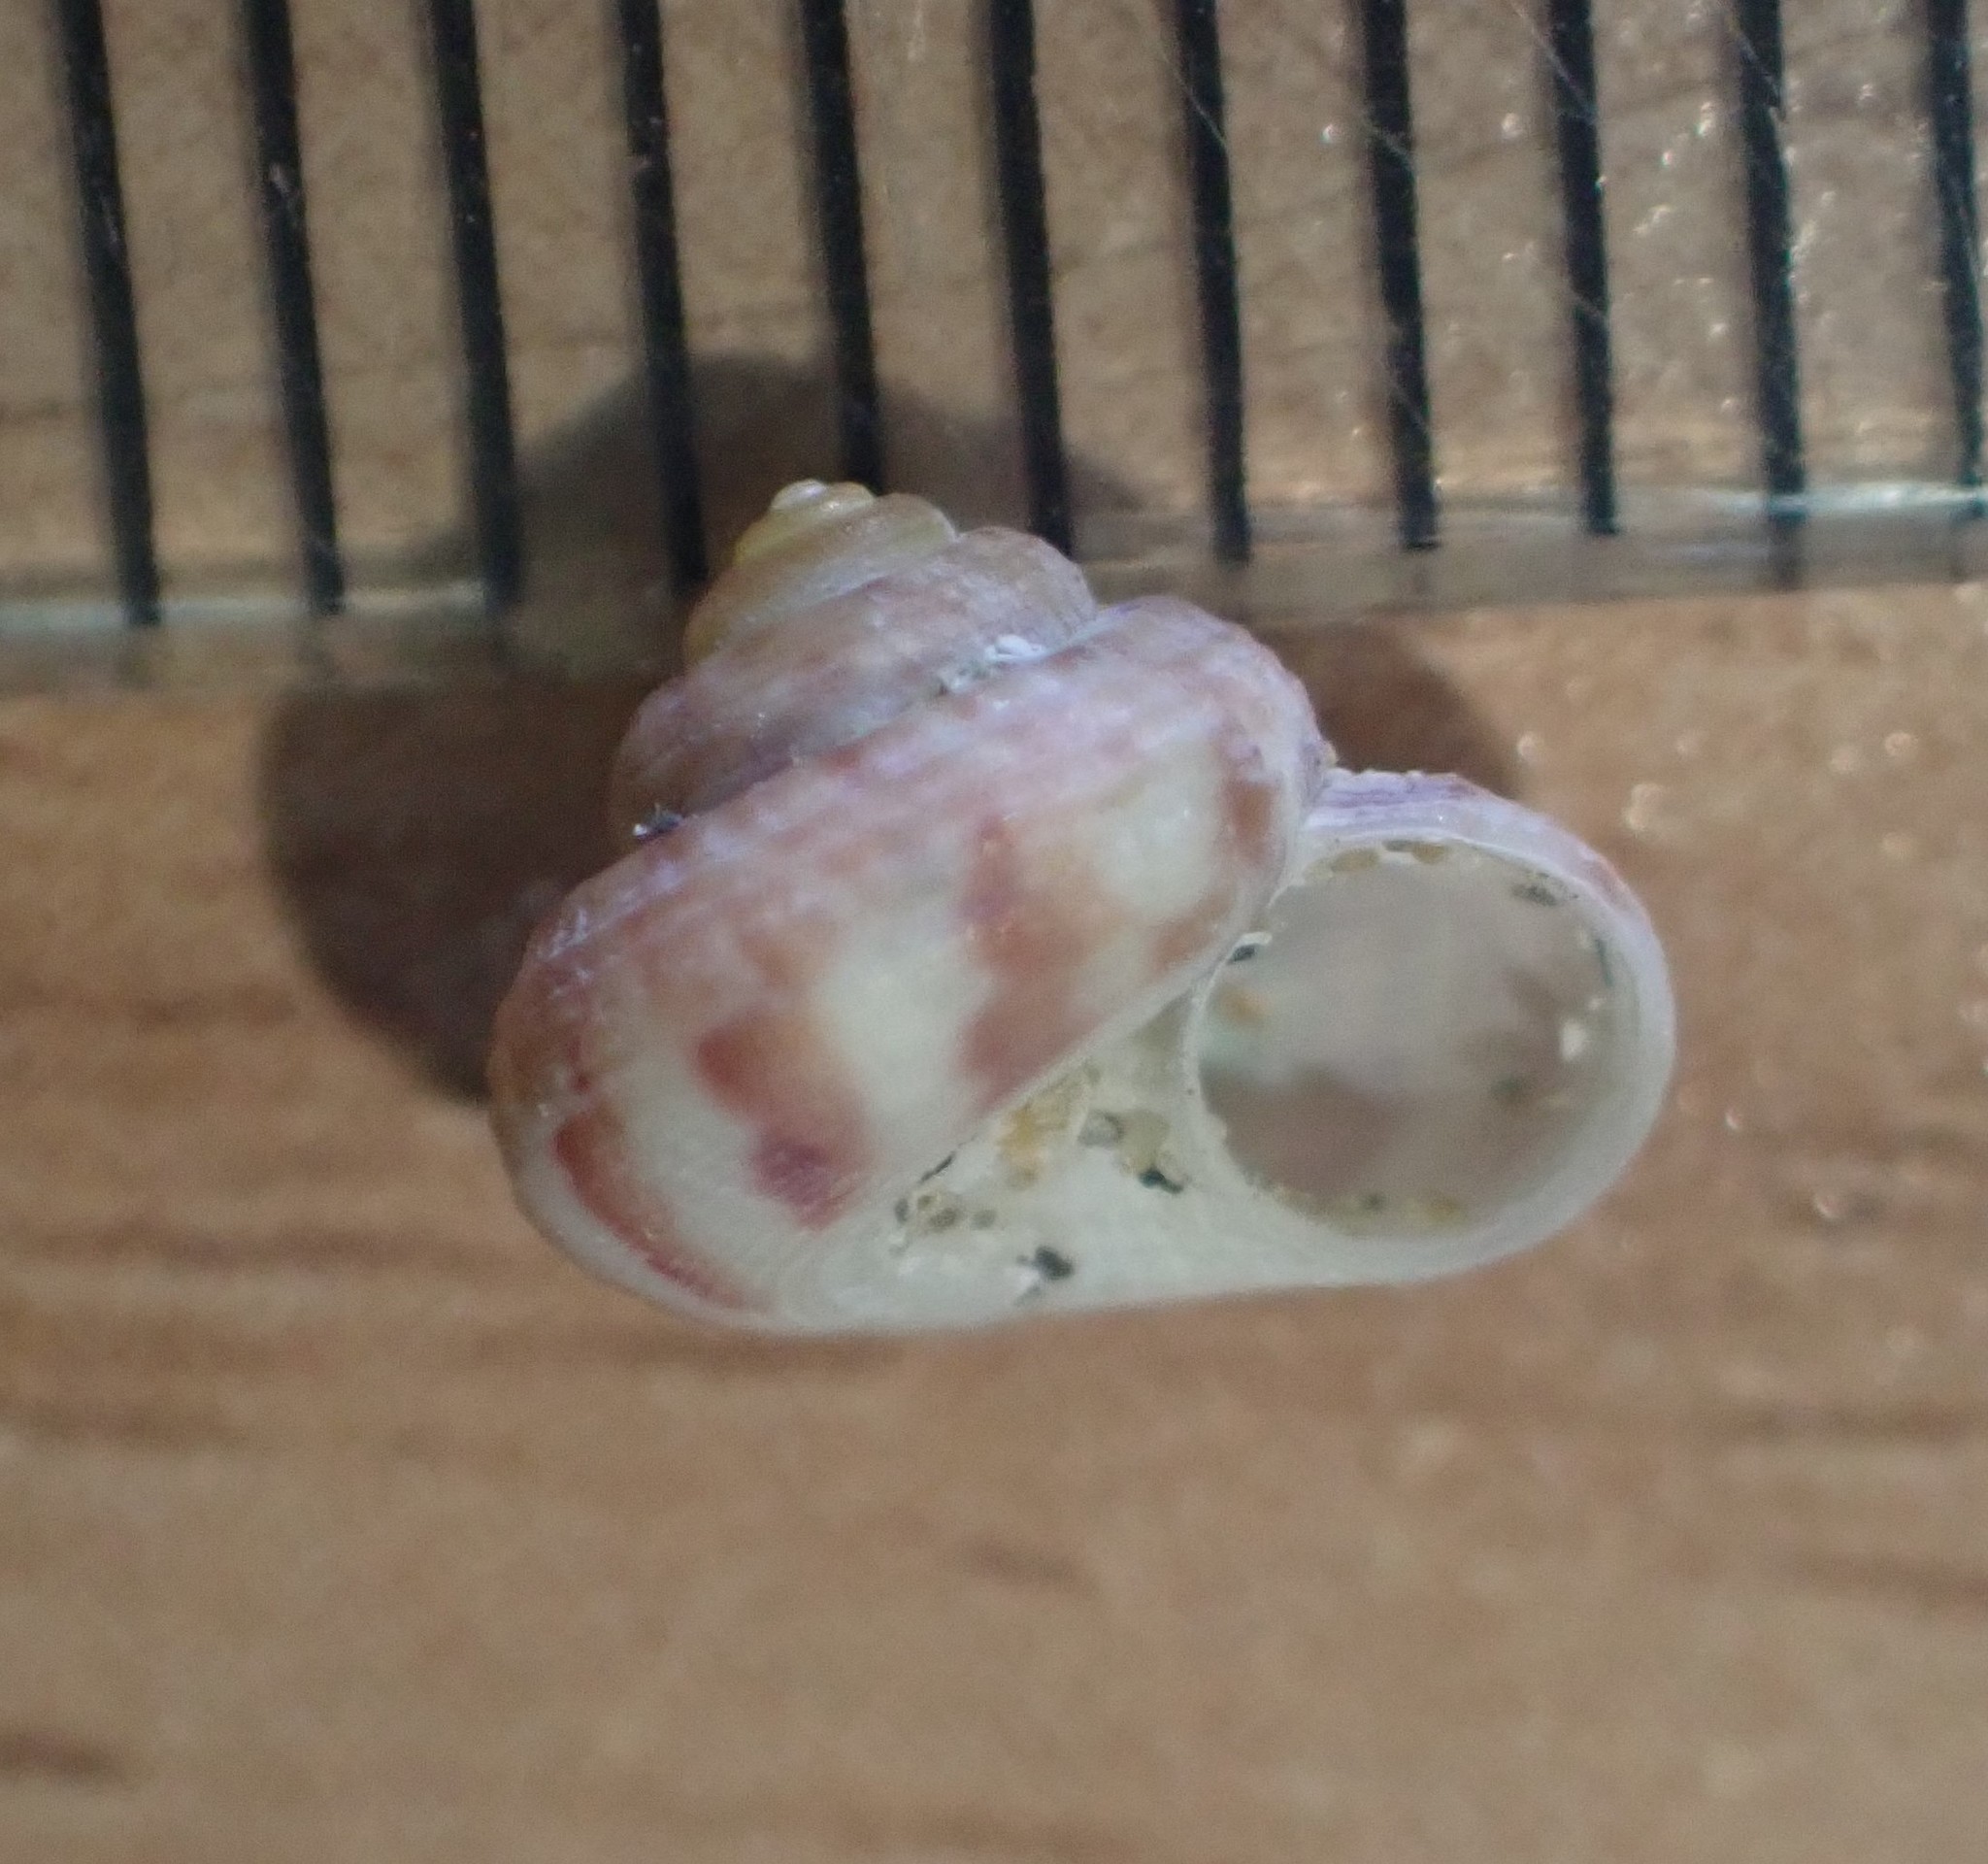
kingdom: Animalia
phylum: Mollusca
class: Gastropoda
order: Trochida
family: Solariellidae
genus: Spectamen
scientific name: Spectamen tryphenense
